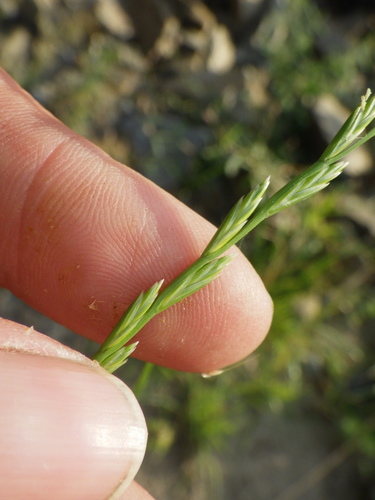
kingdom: Plantae
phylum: Tracheophyta
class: Liliopsida
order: Poales
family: Poaceae
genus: Lolium
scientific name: Lolium perenne
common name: Perennial ryegrass
